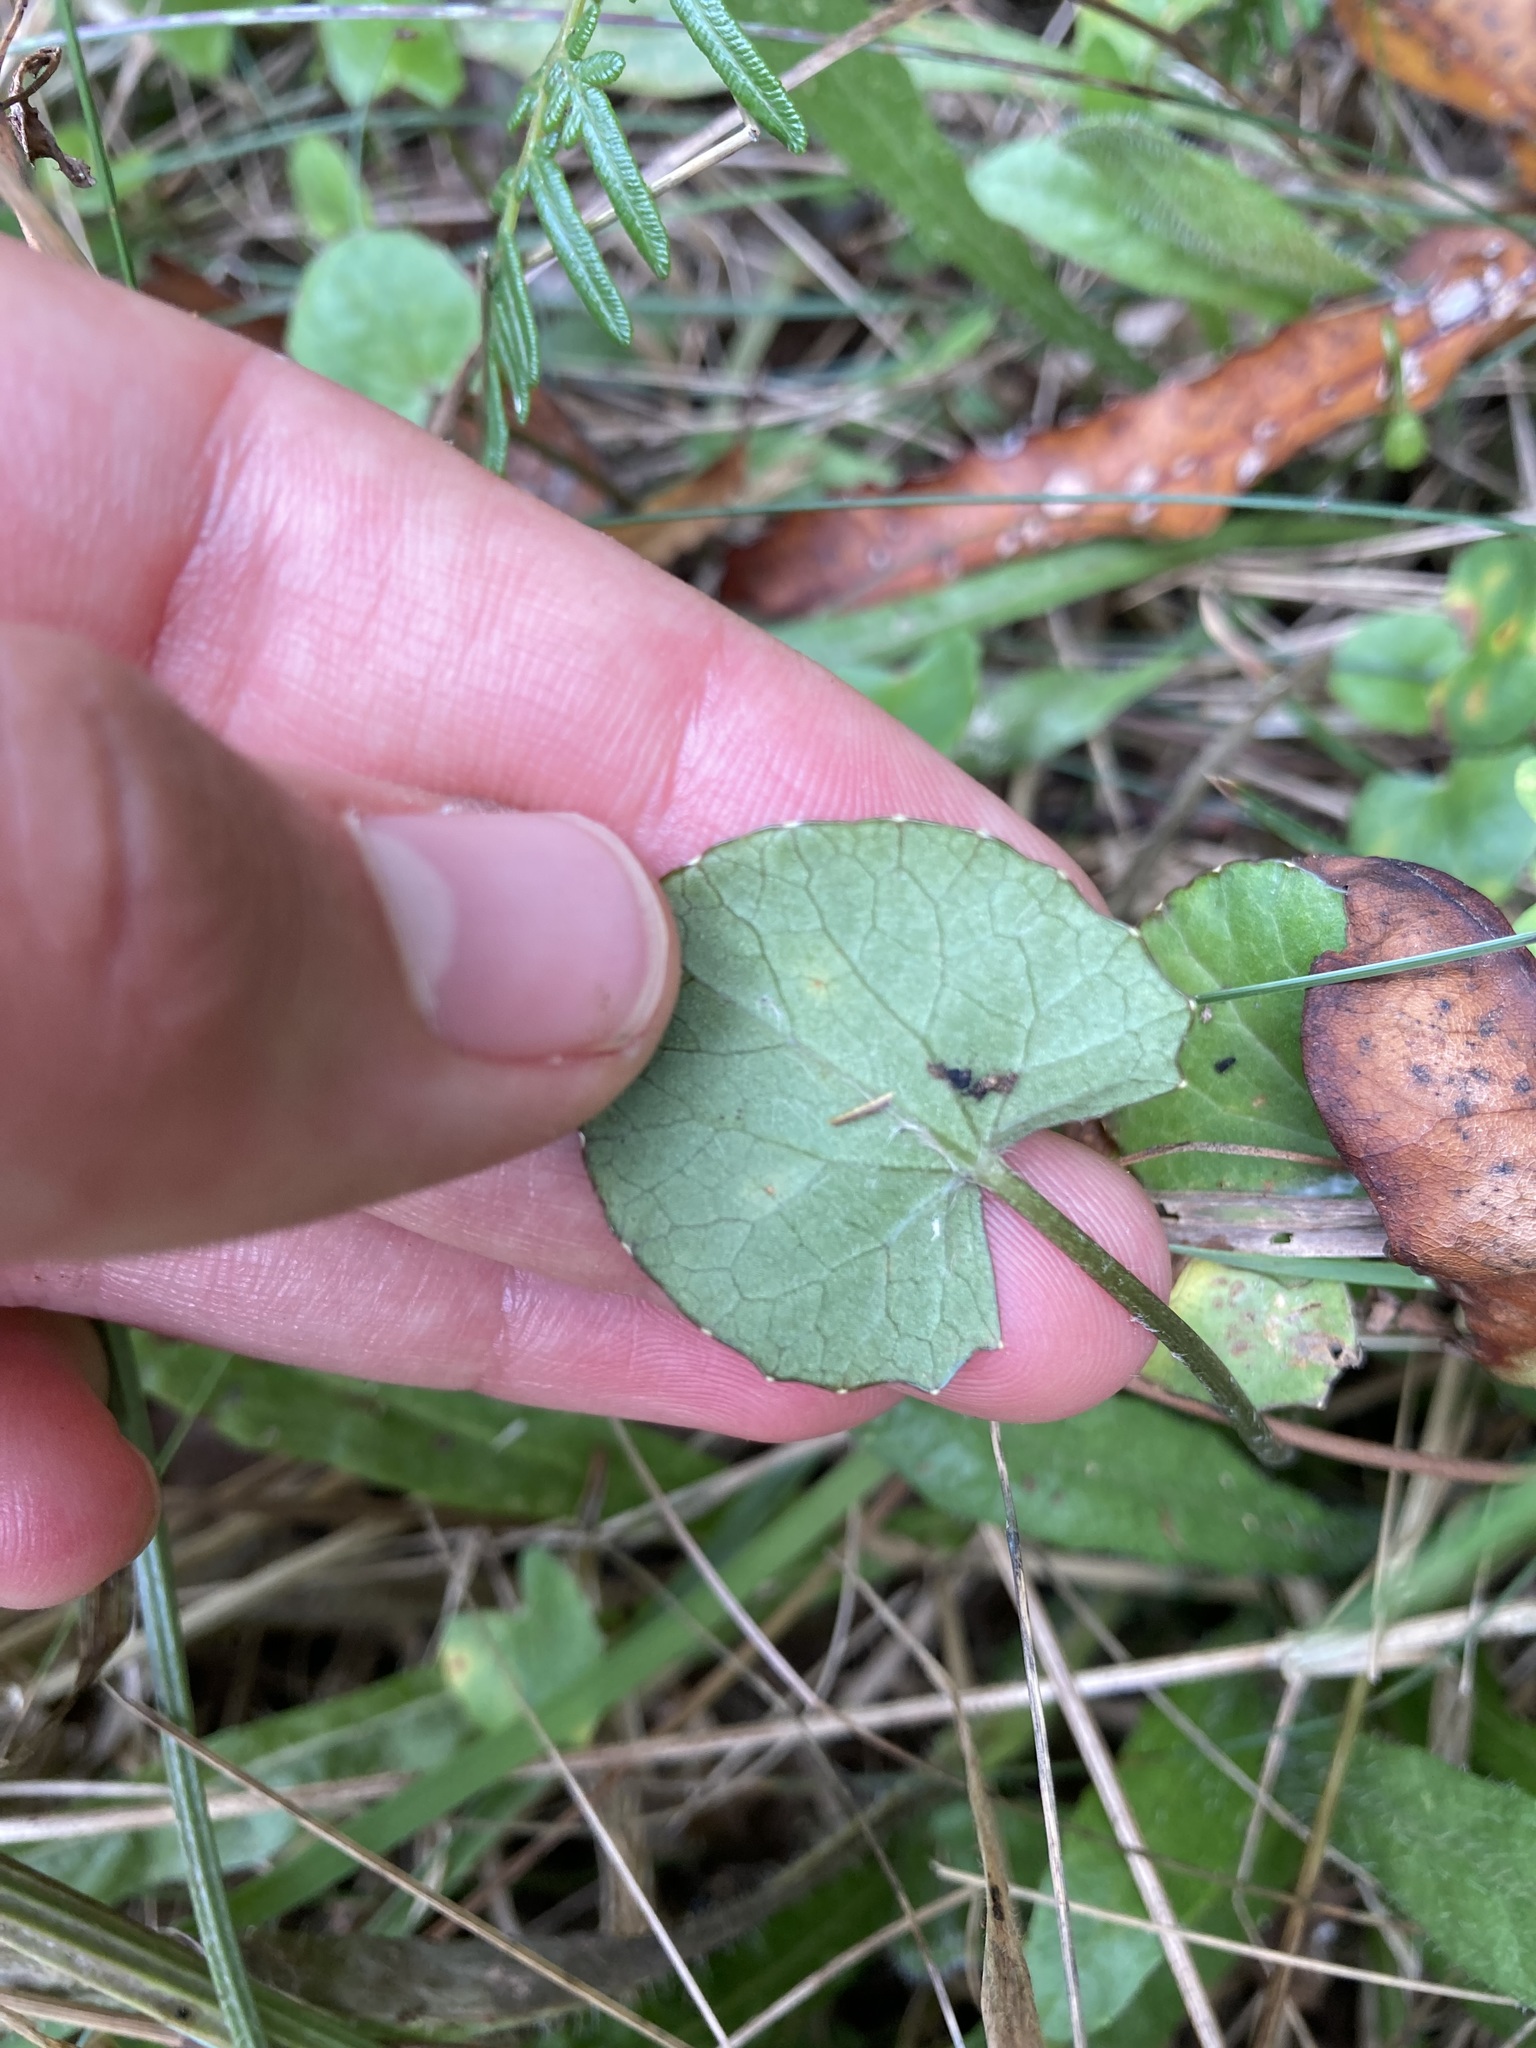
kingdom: Plantae
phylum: Tracheophyta
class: Magnoliopsida
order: Apiales
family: Apiaceae
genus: Centella
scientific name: Centella uniflora
